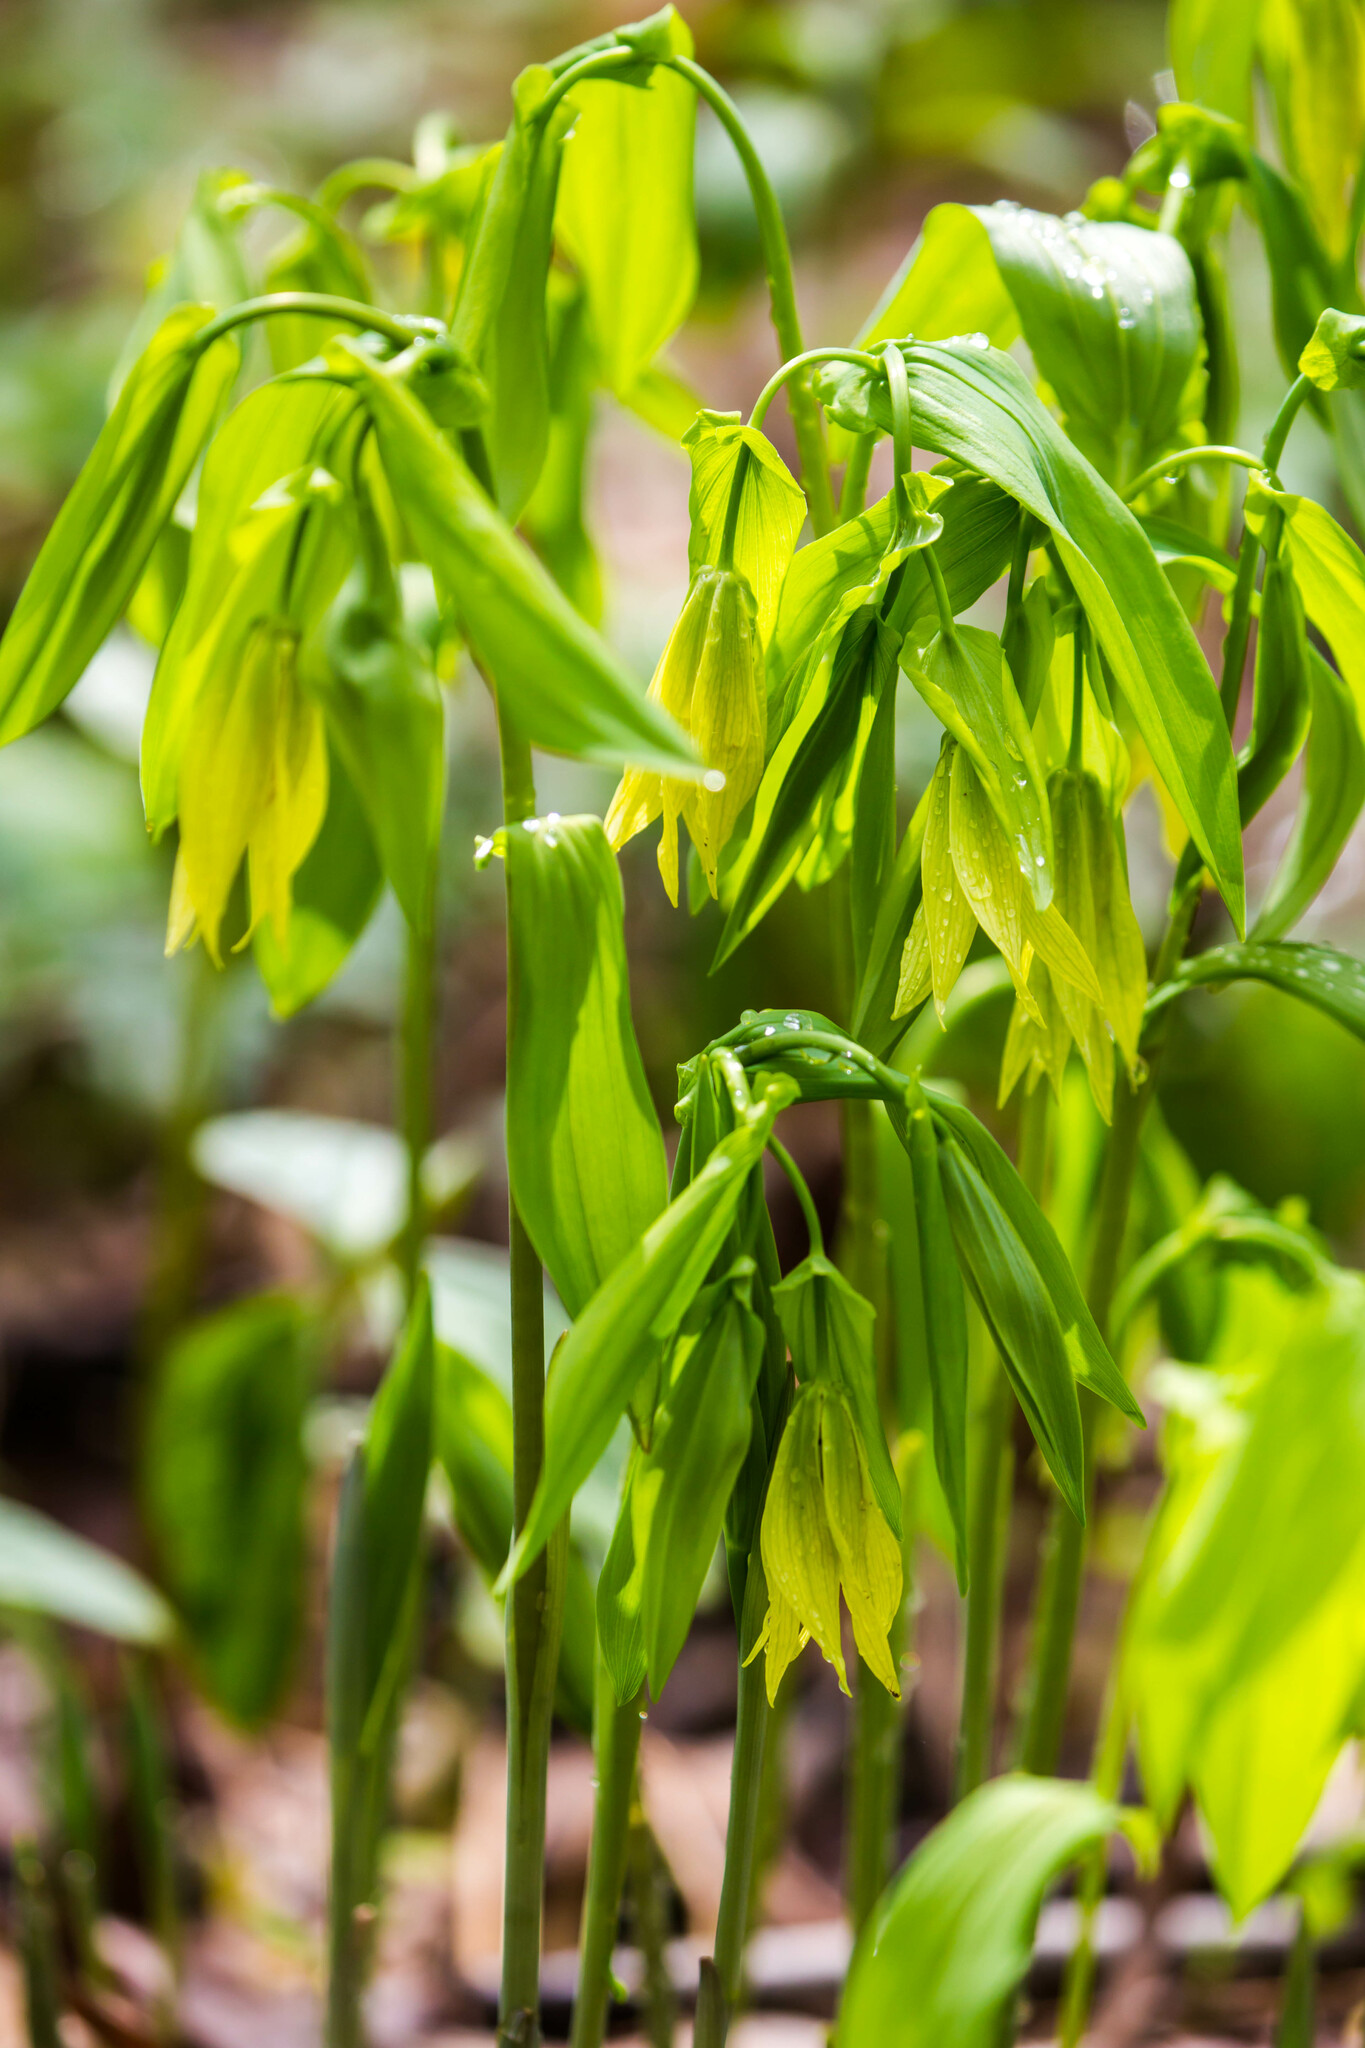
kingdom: Plantae
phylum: Tracheophyta
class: Liliopsida
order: Liliales
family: Colchicaceae
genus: Uvularia
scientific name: Uvularia grandiflora
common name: Bellwort
